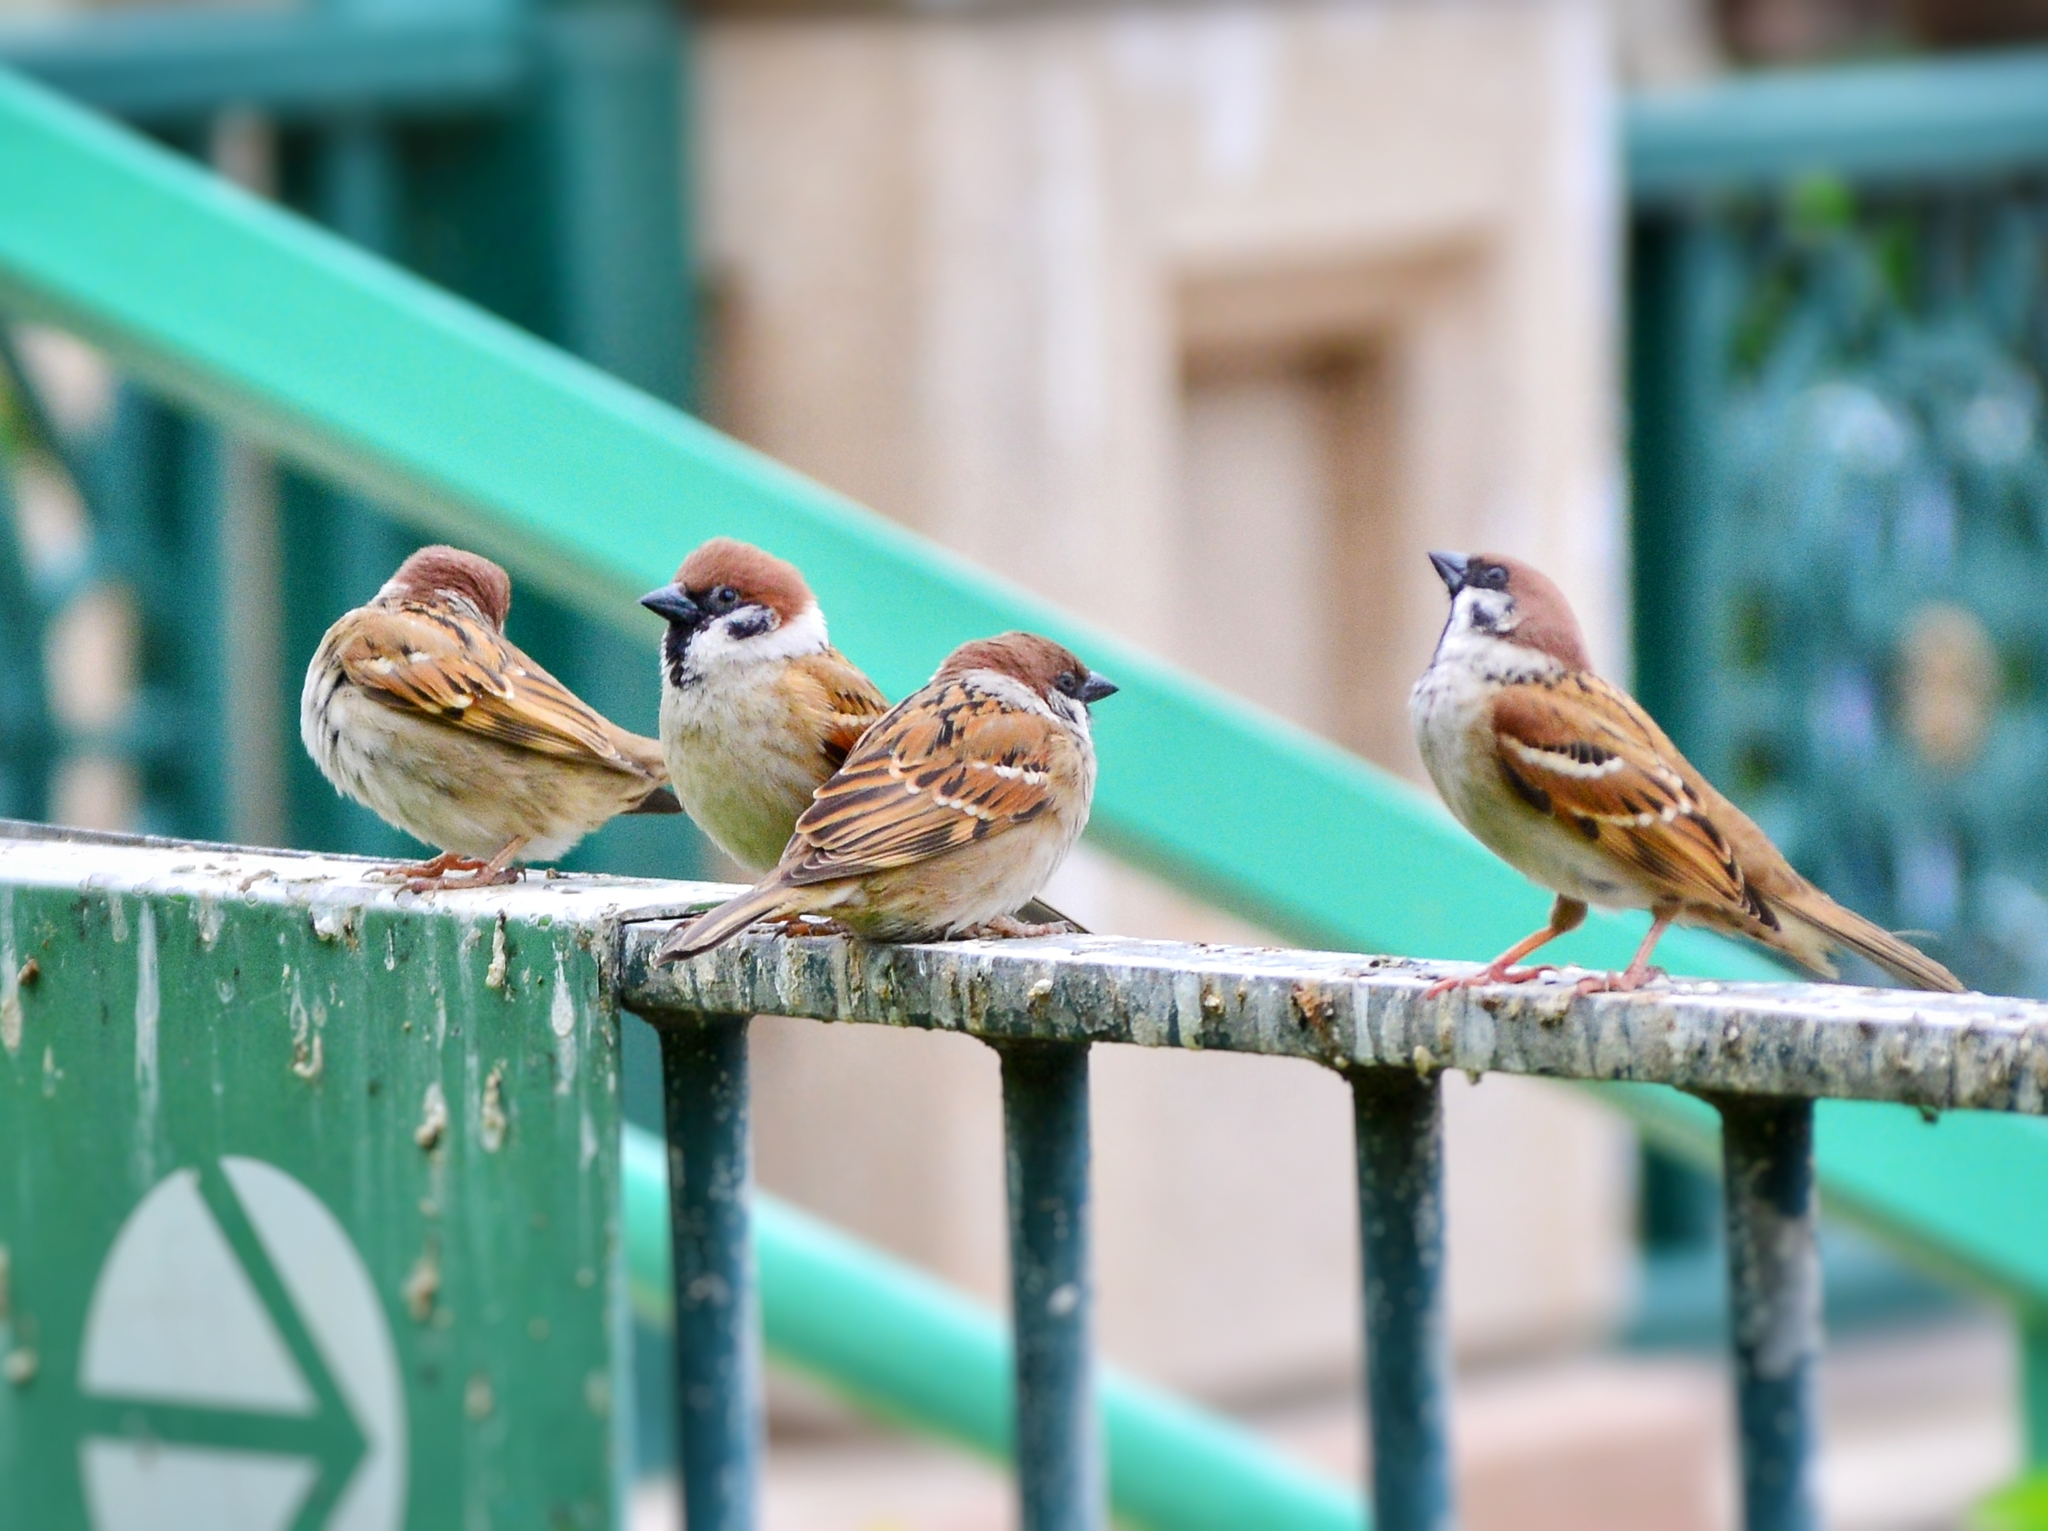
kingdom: Animalia
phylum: Chordata
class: Aves
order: Passeriformes
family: Passeridae
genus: Passer
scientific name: Passer montanus
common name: Eurasian tree sparrow
